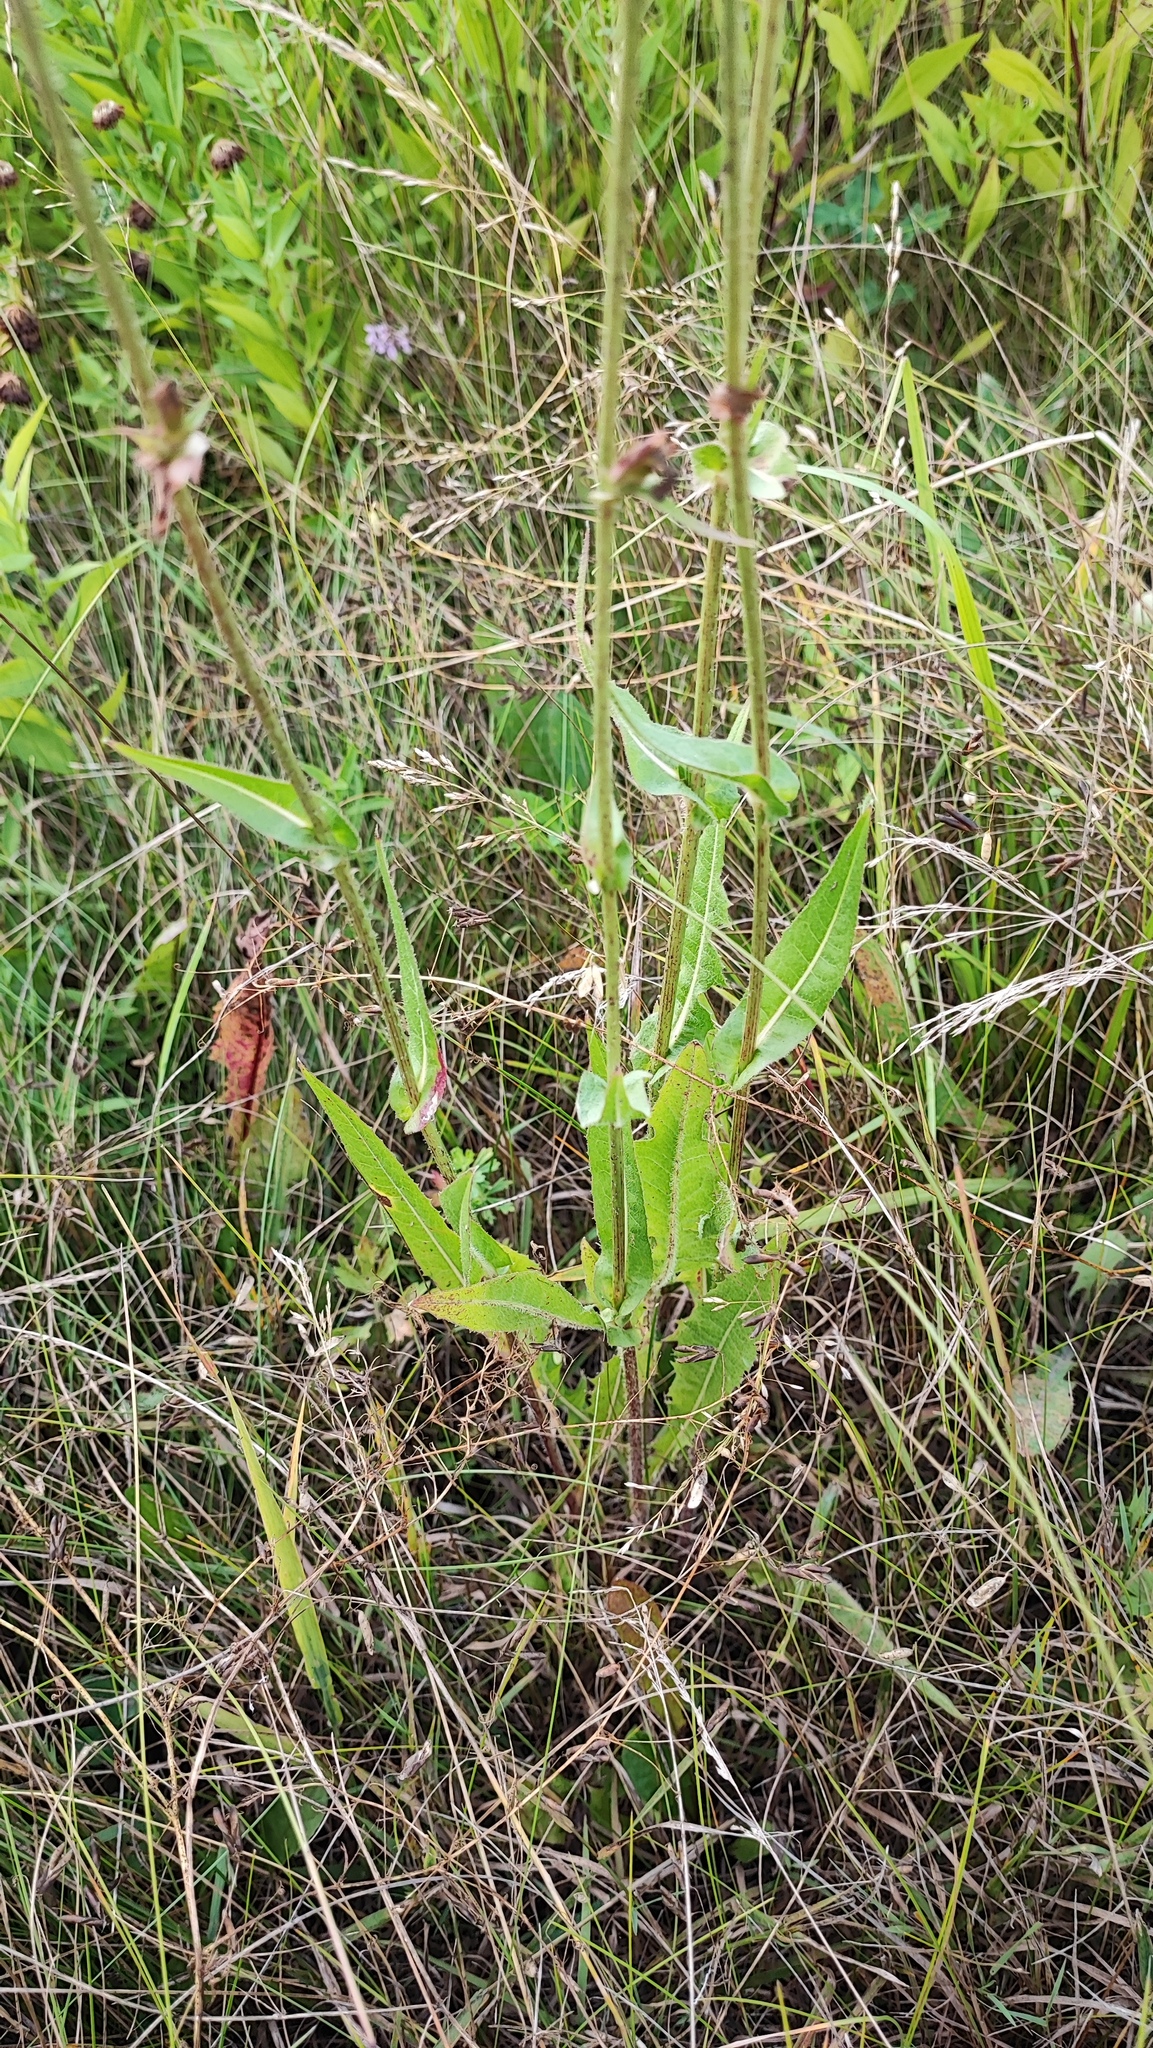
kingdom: Plantae
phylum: Tracheophyta
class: Magnoliopsida
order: Asterales
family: Asteraceae
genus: Cichorium
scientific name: Cichorium intybus
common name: Chicory
